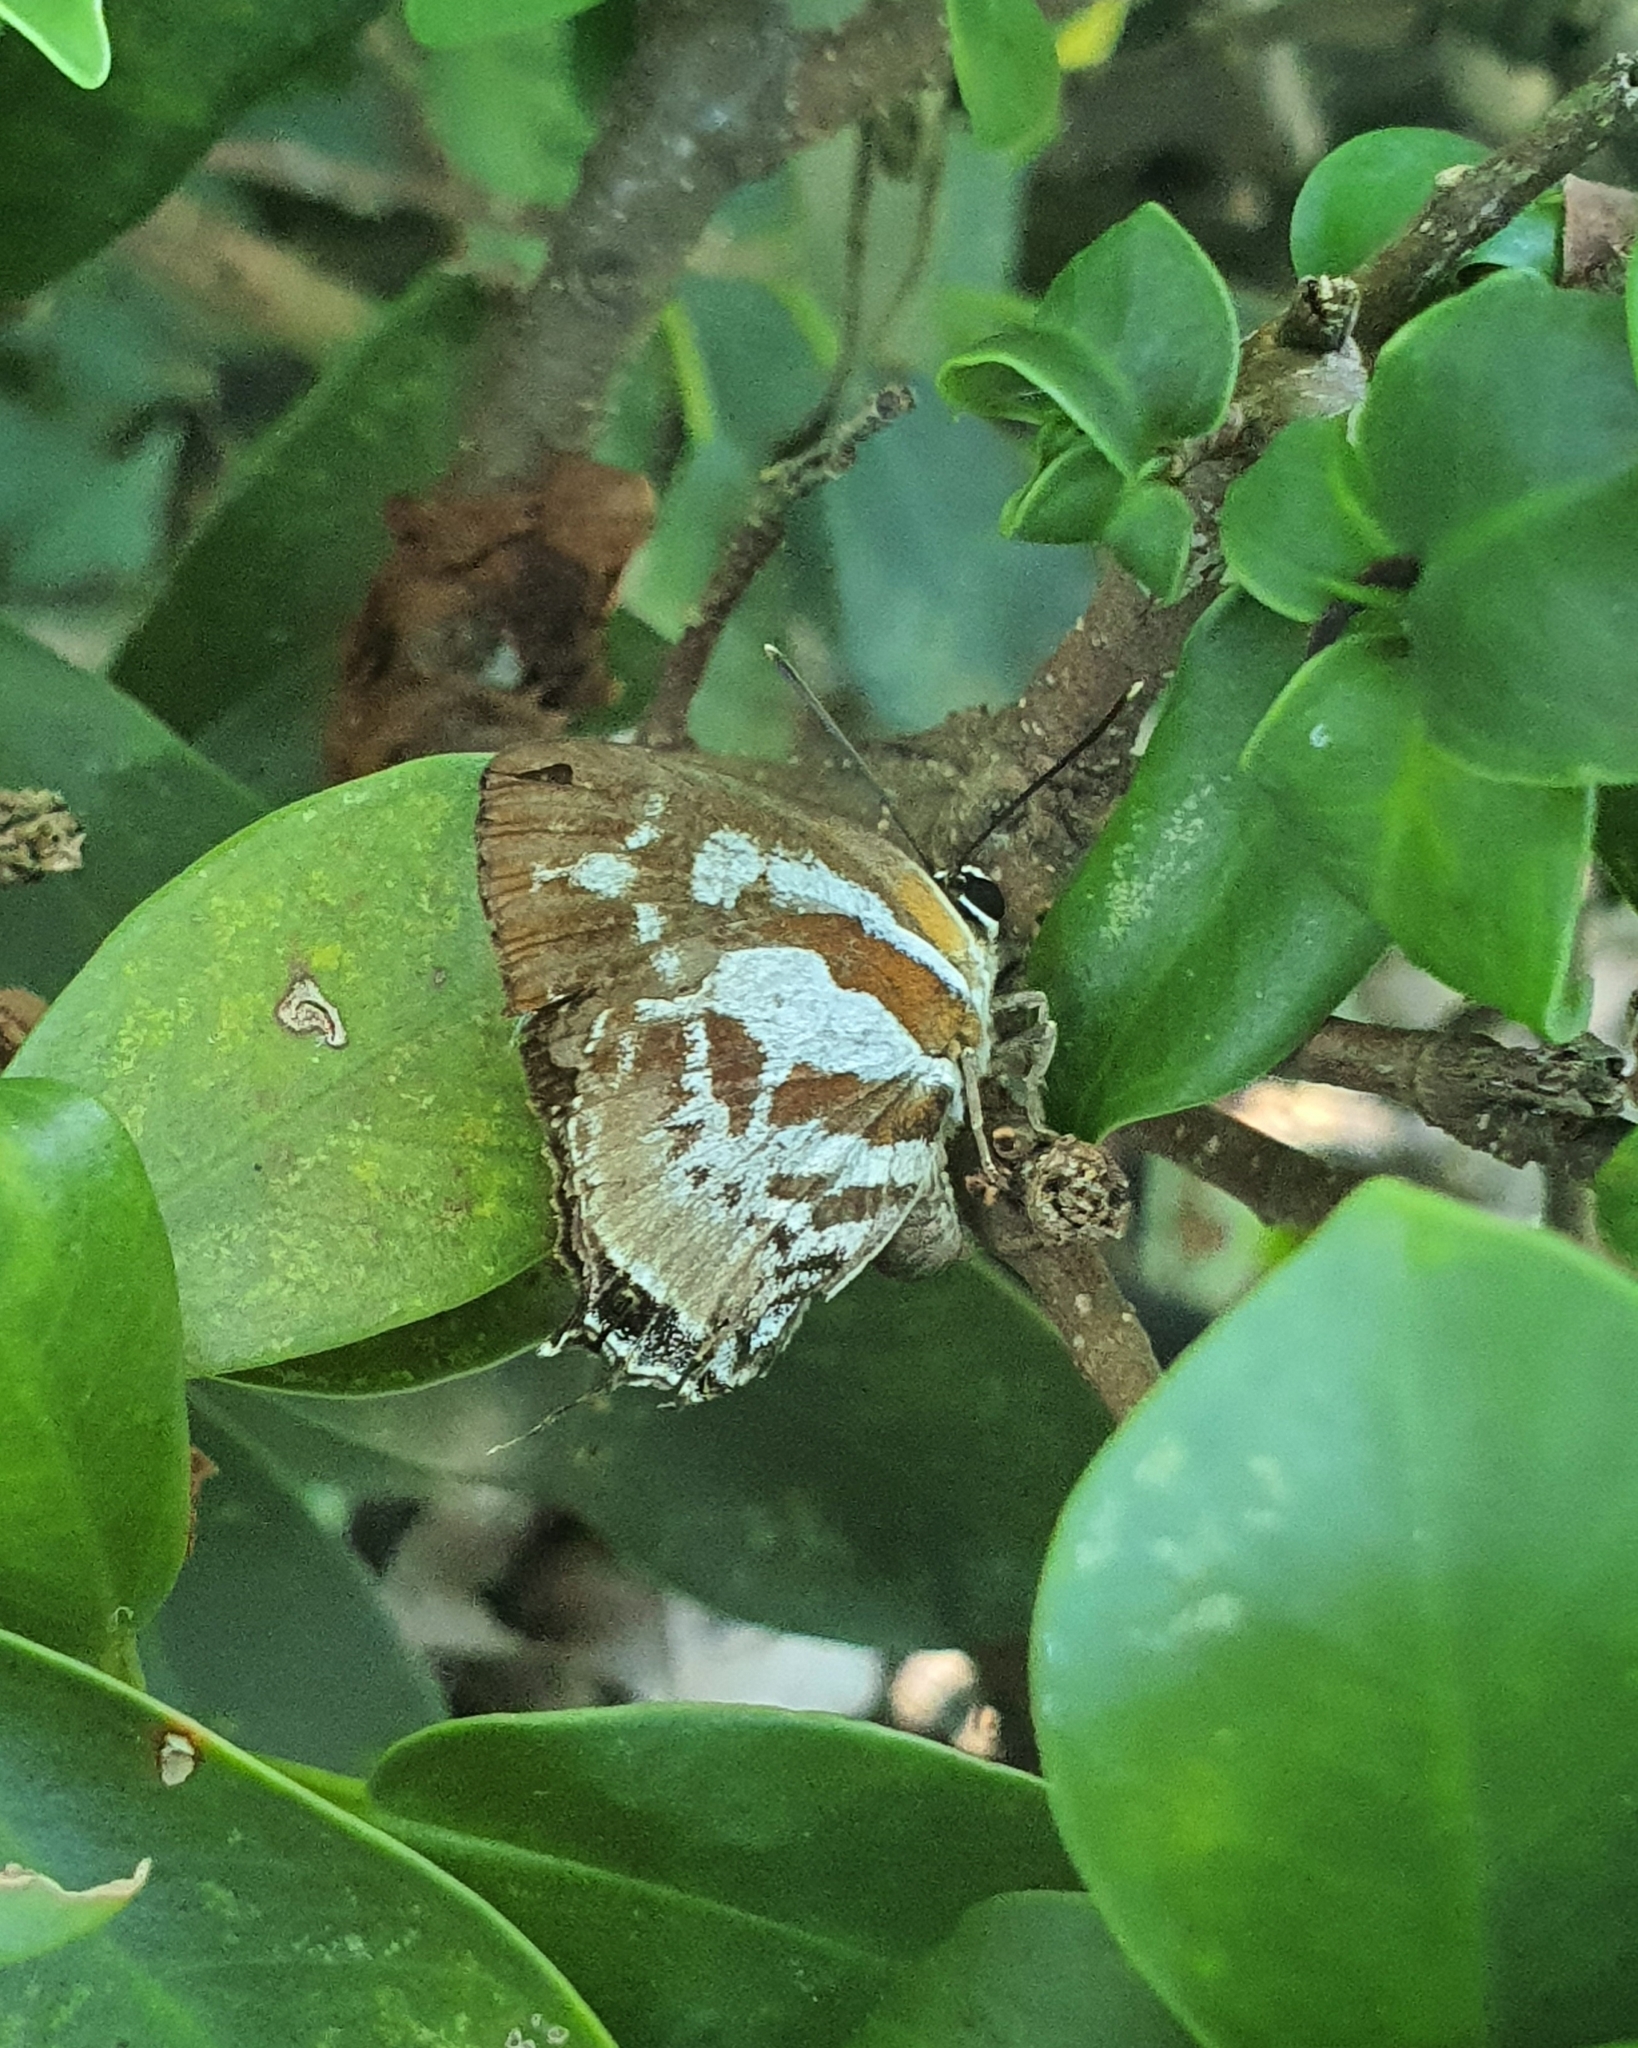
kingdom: Animalia
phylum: Arthropoda
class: Insecta
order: Lepidoptera
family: Lycaenidae
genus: Iraota
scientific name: Iraota rochana
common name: Scarce silverstreak blue
